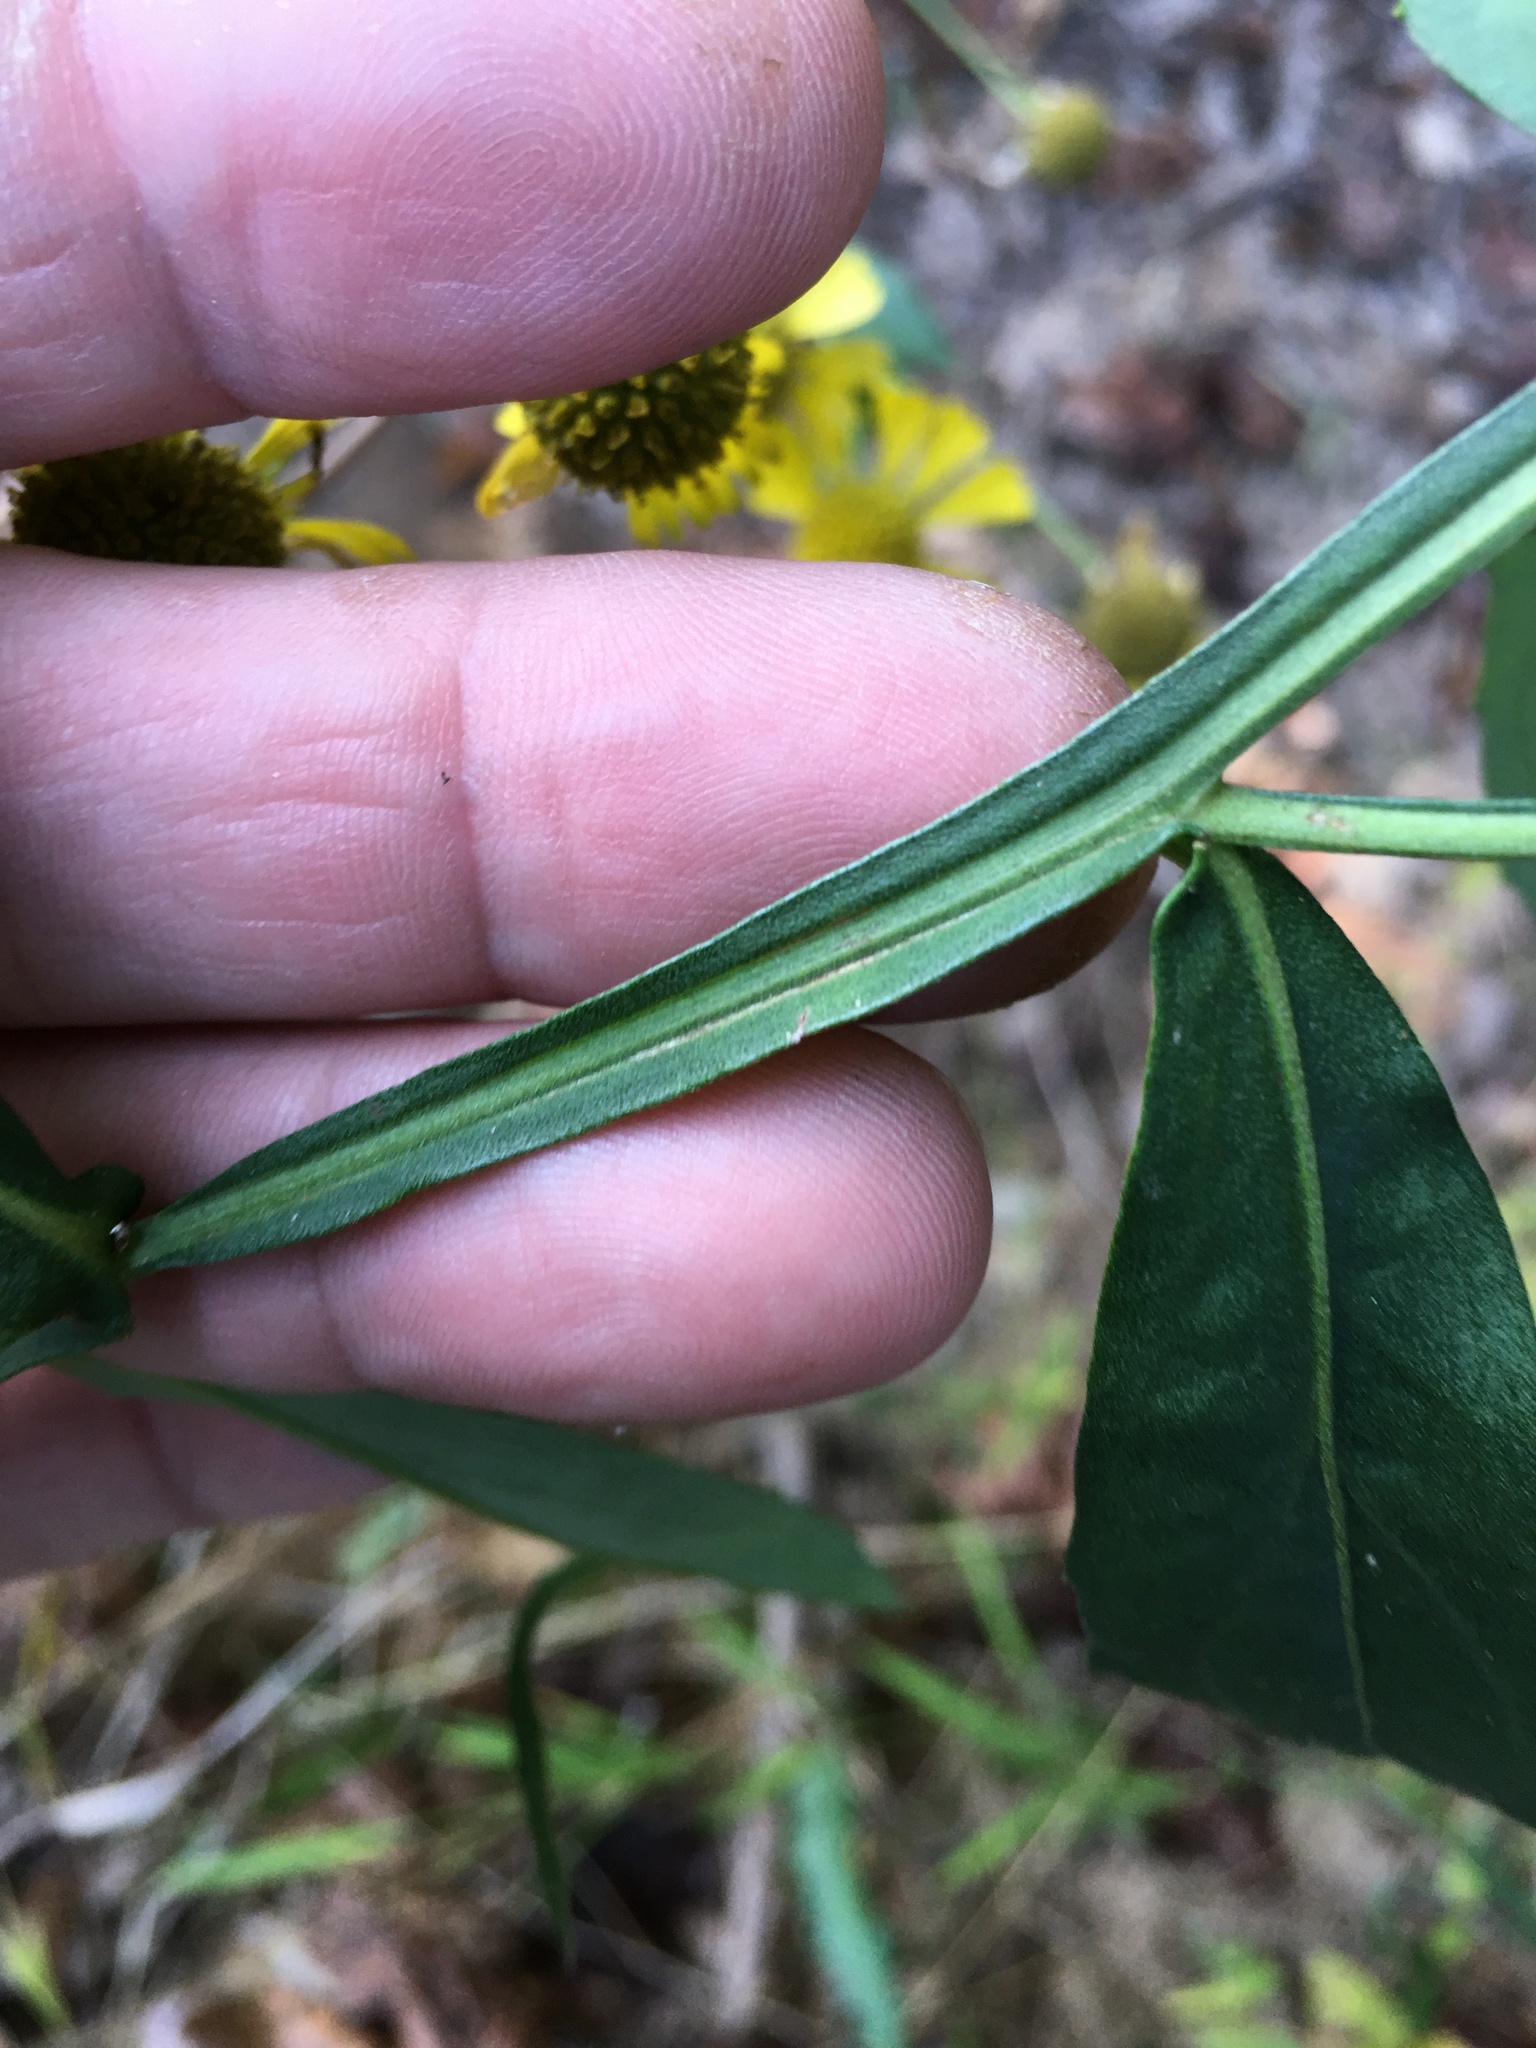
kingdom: Plantae
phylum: Tracheophyta
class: Magnoliopsida
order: Asterales
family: Asteraceae
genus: Helenium
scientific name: Helenium autumnale
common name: Sneezeweed
